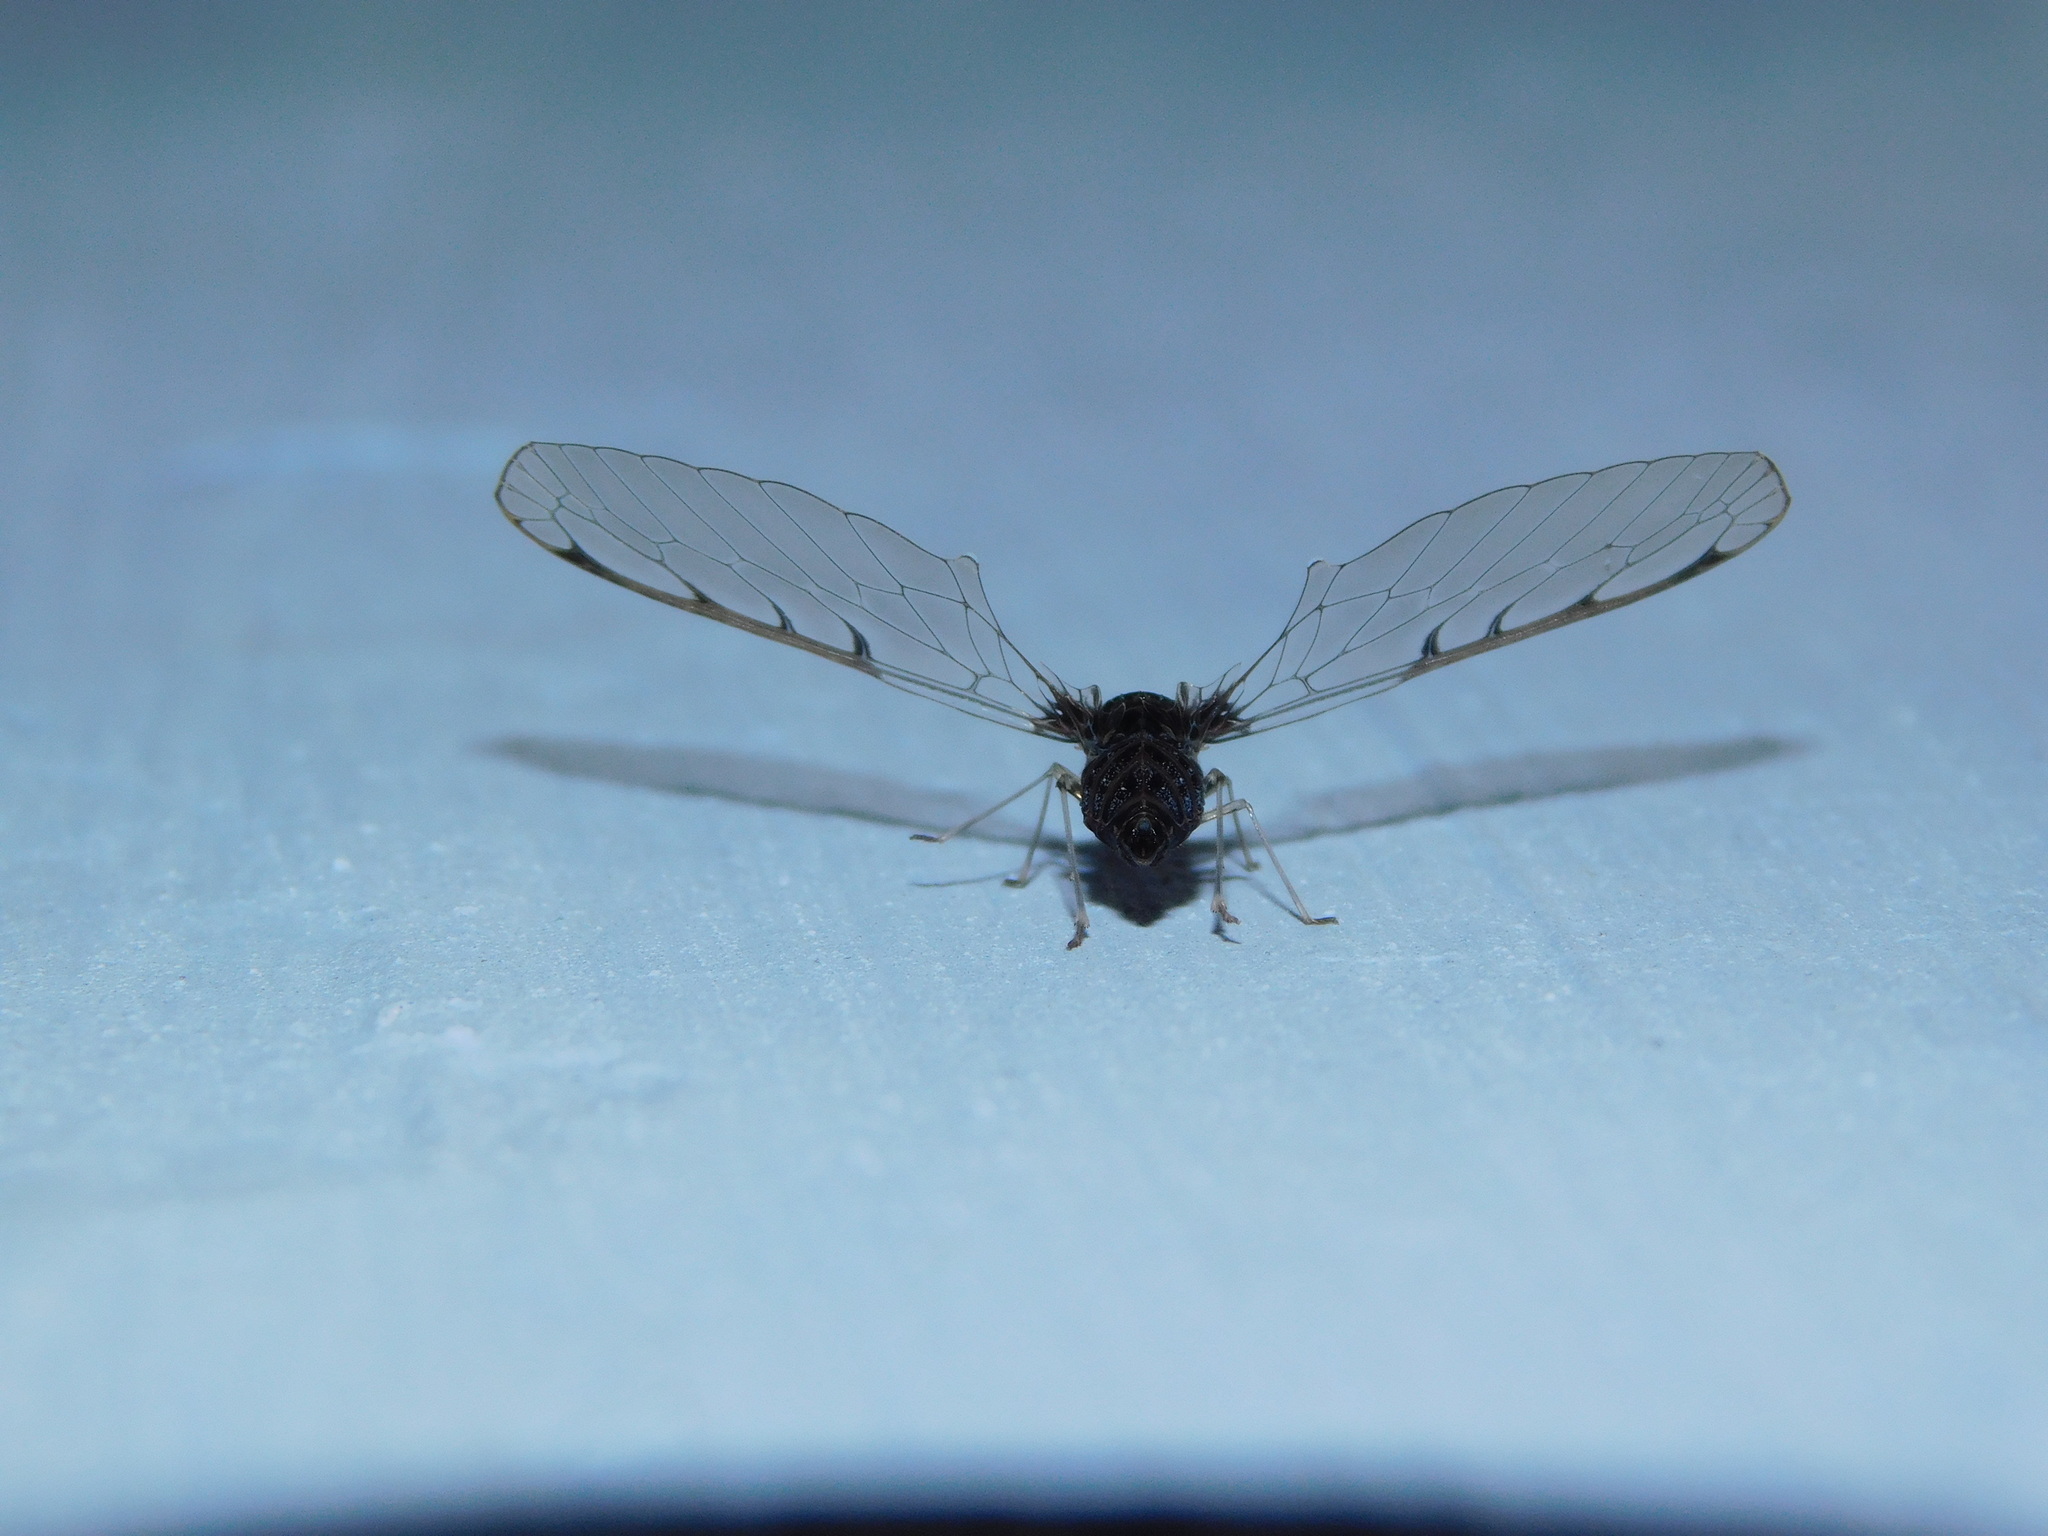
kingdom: Animalia
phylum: Arthropoda
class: Insecta
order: Hemiptera
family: Derbidae
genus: Zoraidoides
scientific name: Zoraidoides malabarensis
